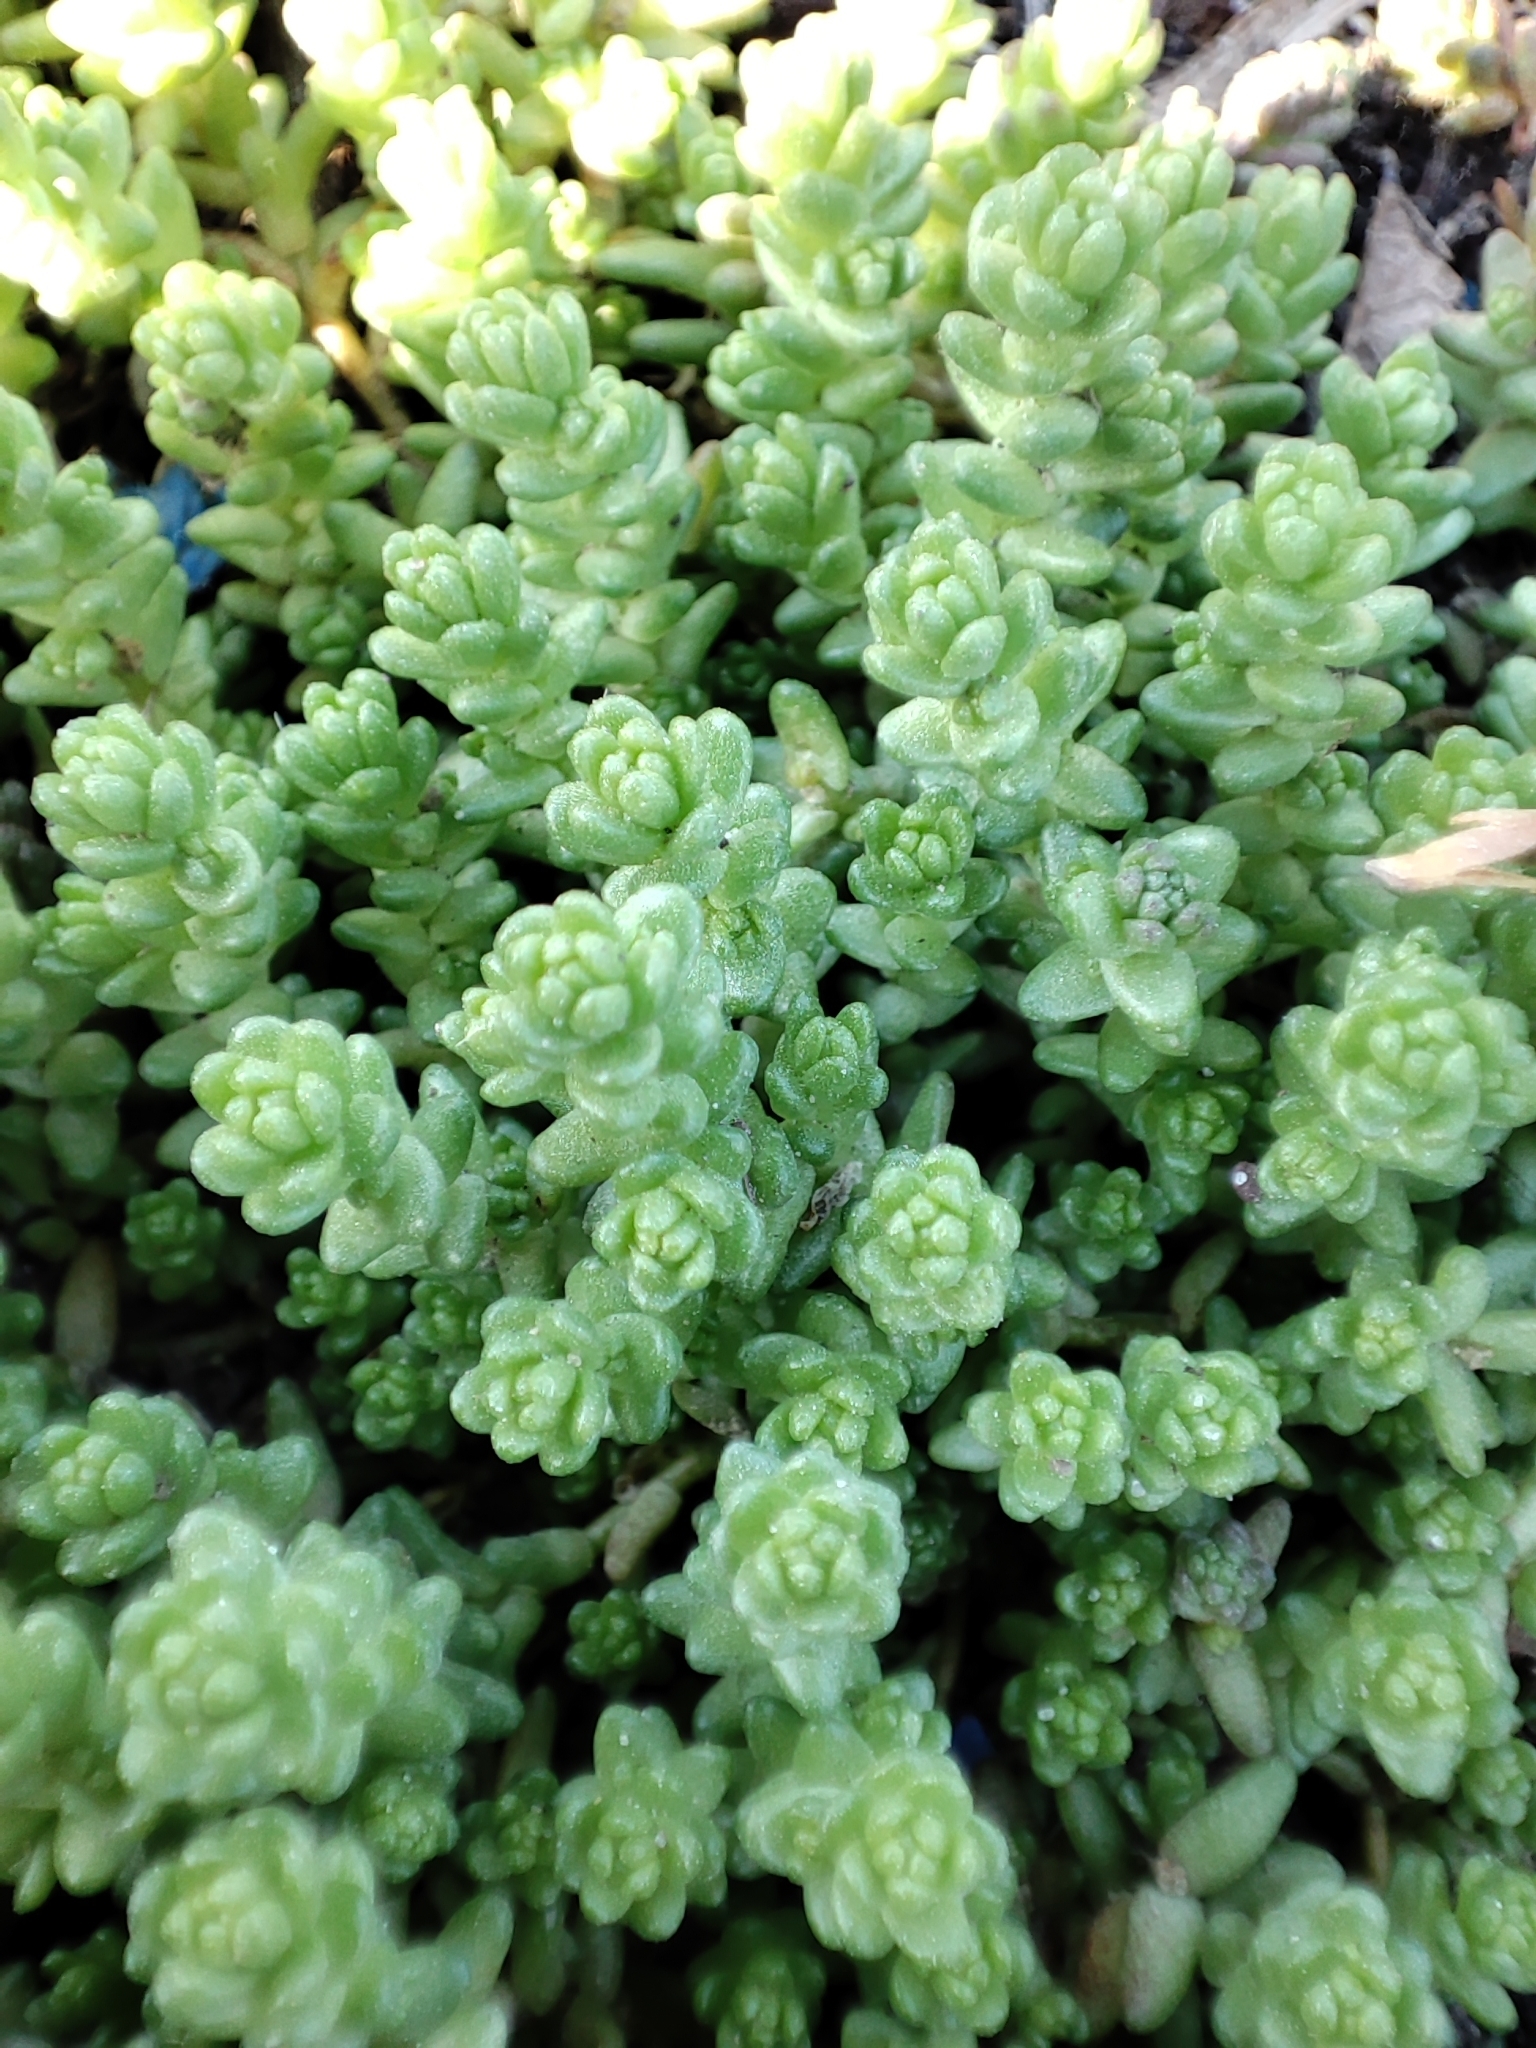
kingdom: Plantae
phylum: Tracheophyta
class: Magnoliopsida
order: Saxifragales
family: Crassulaceae
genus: Sedum
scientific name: Sedum acre
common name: Biting stonecrop
